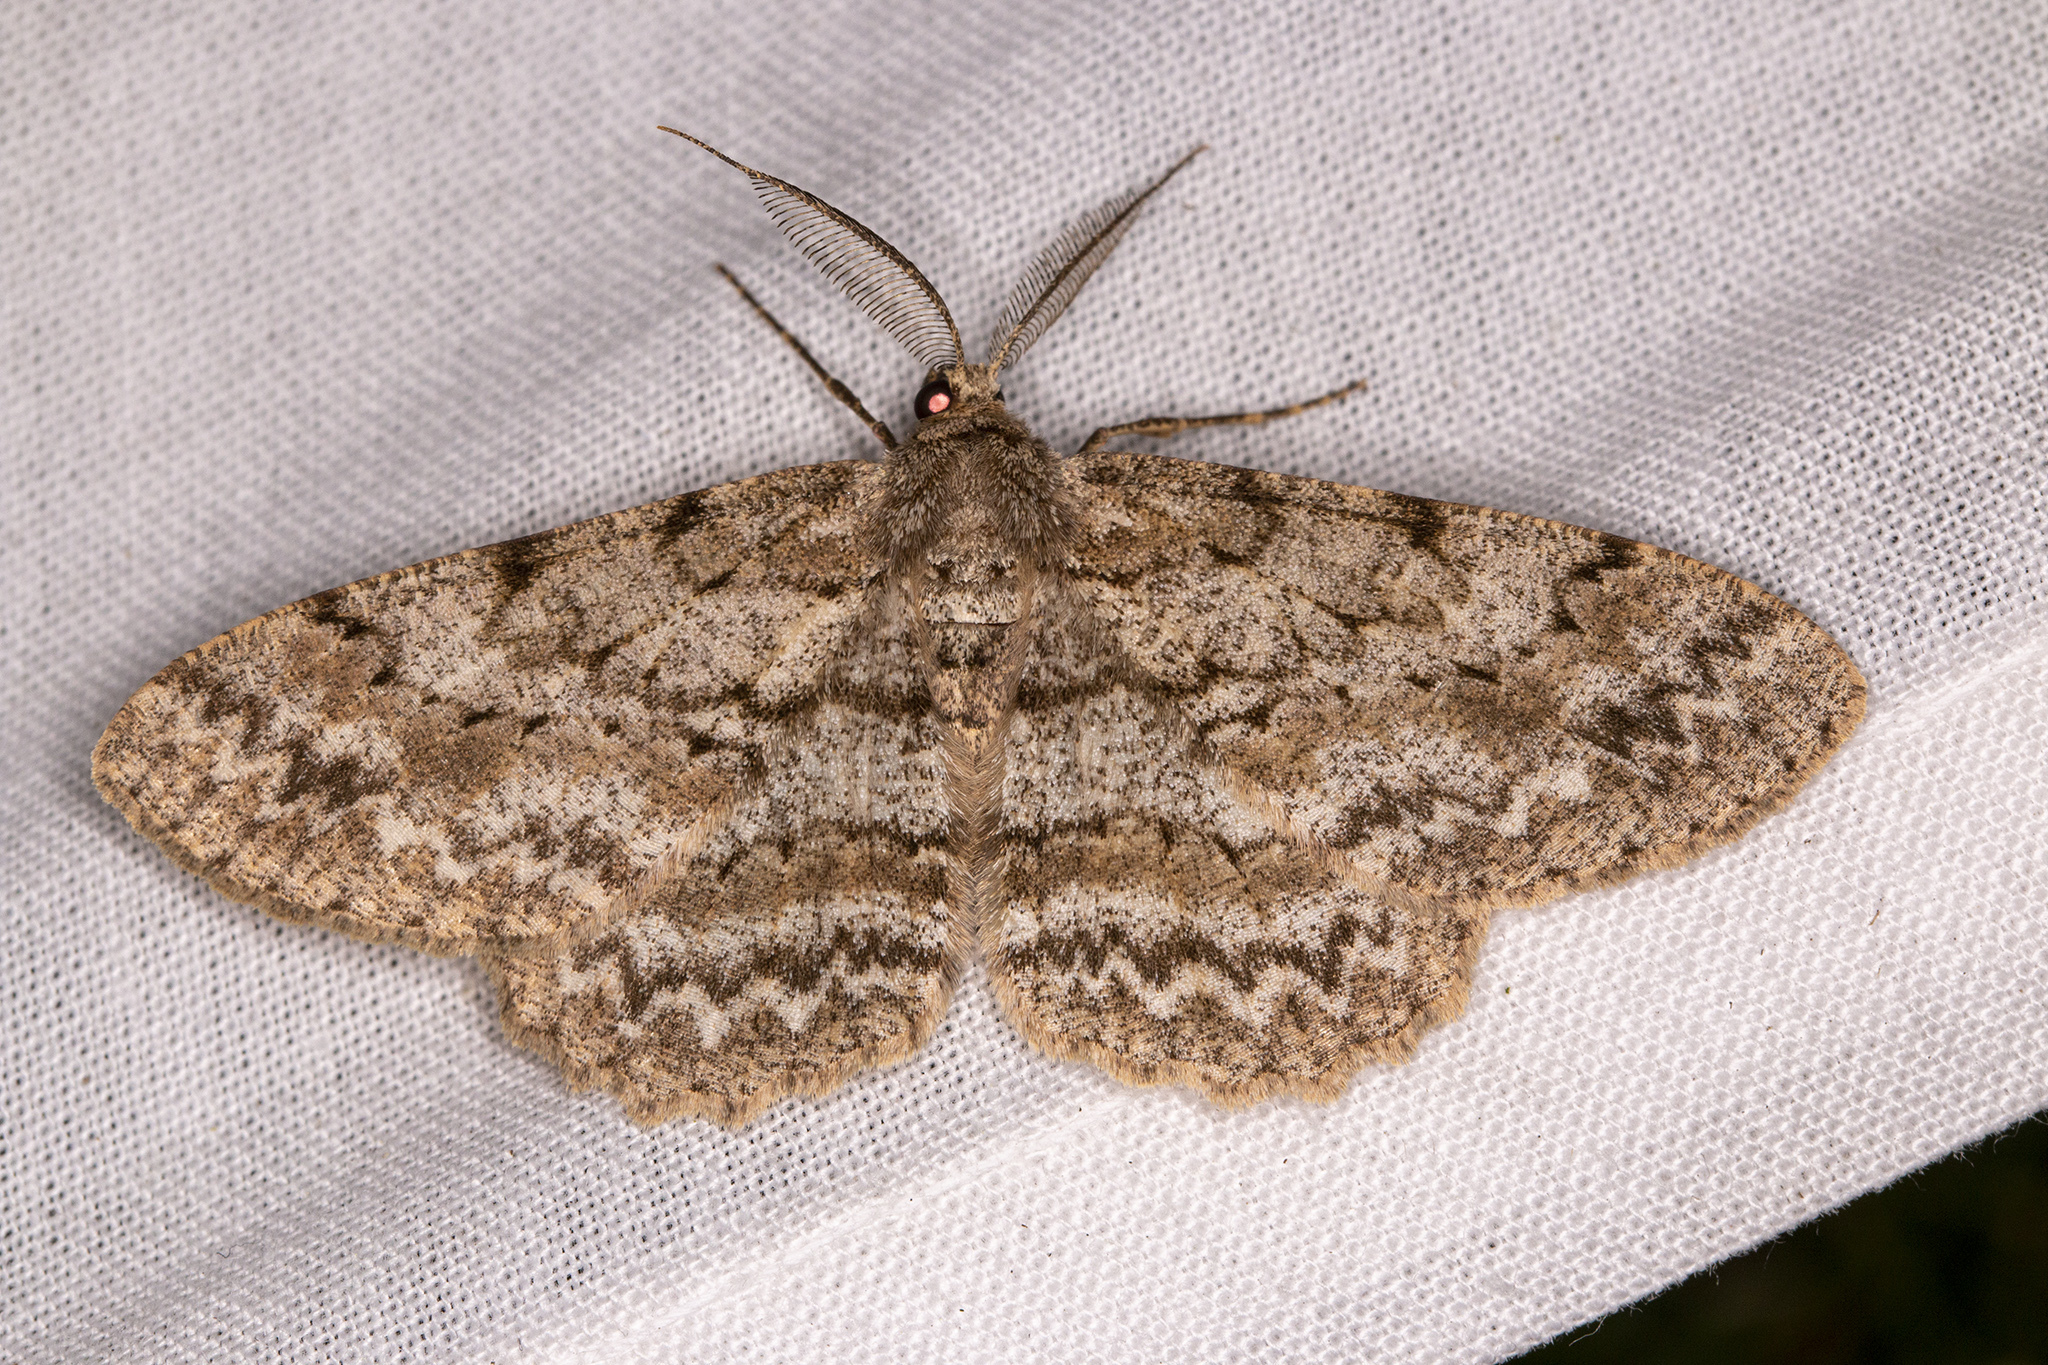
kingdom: Animalia
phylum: Arthropoda
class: Insecta
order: Lepidoptera
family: Geometridae
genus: Hypomecis
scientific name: Hypomecis punctinalis
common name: Pale oak beauty
